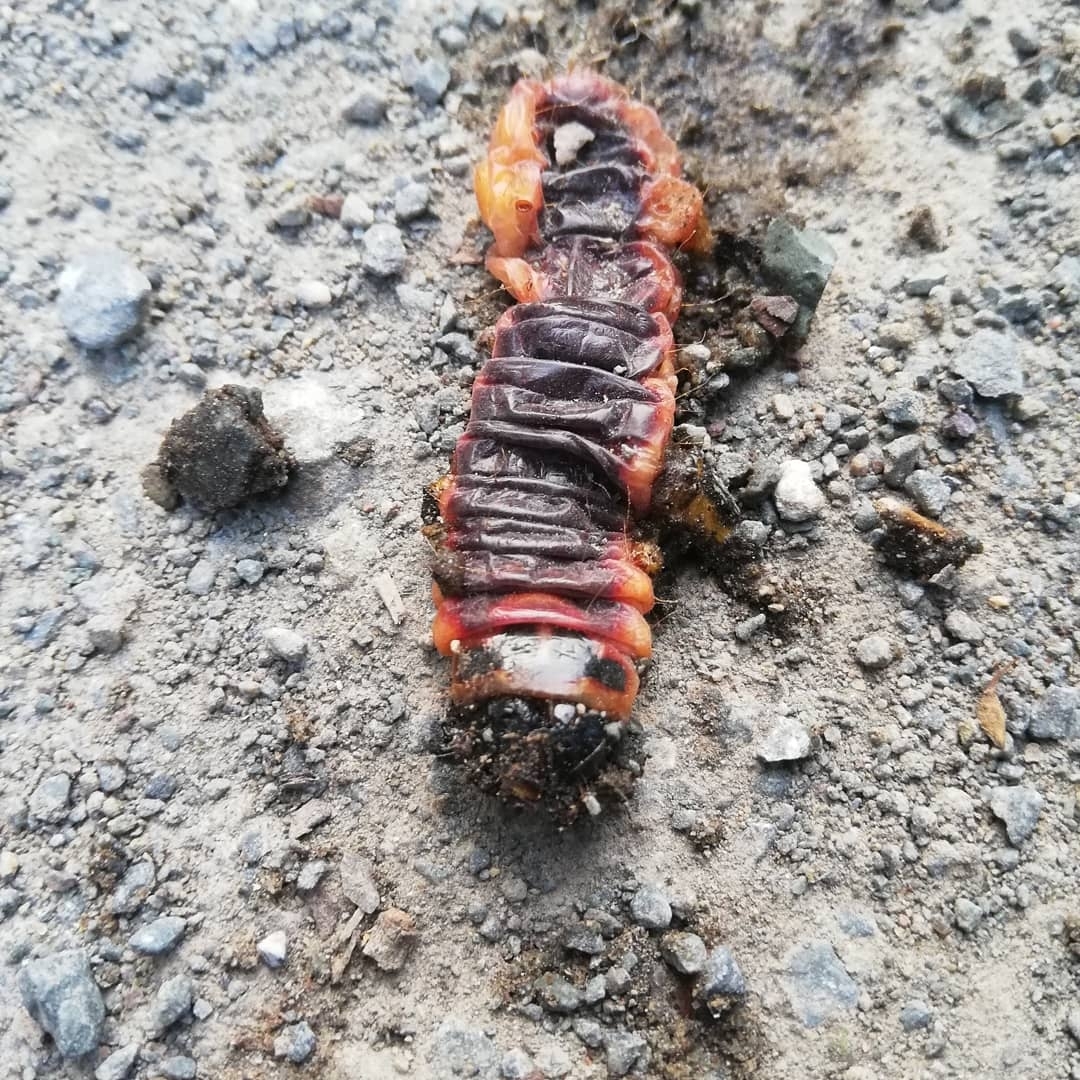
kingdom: Animalia
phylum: Arthropoda
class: Insecta
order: Lepidoptera
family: Cossidae
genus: Cossus
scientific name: Cossus cossus
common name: Goat moth
